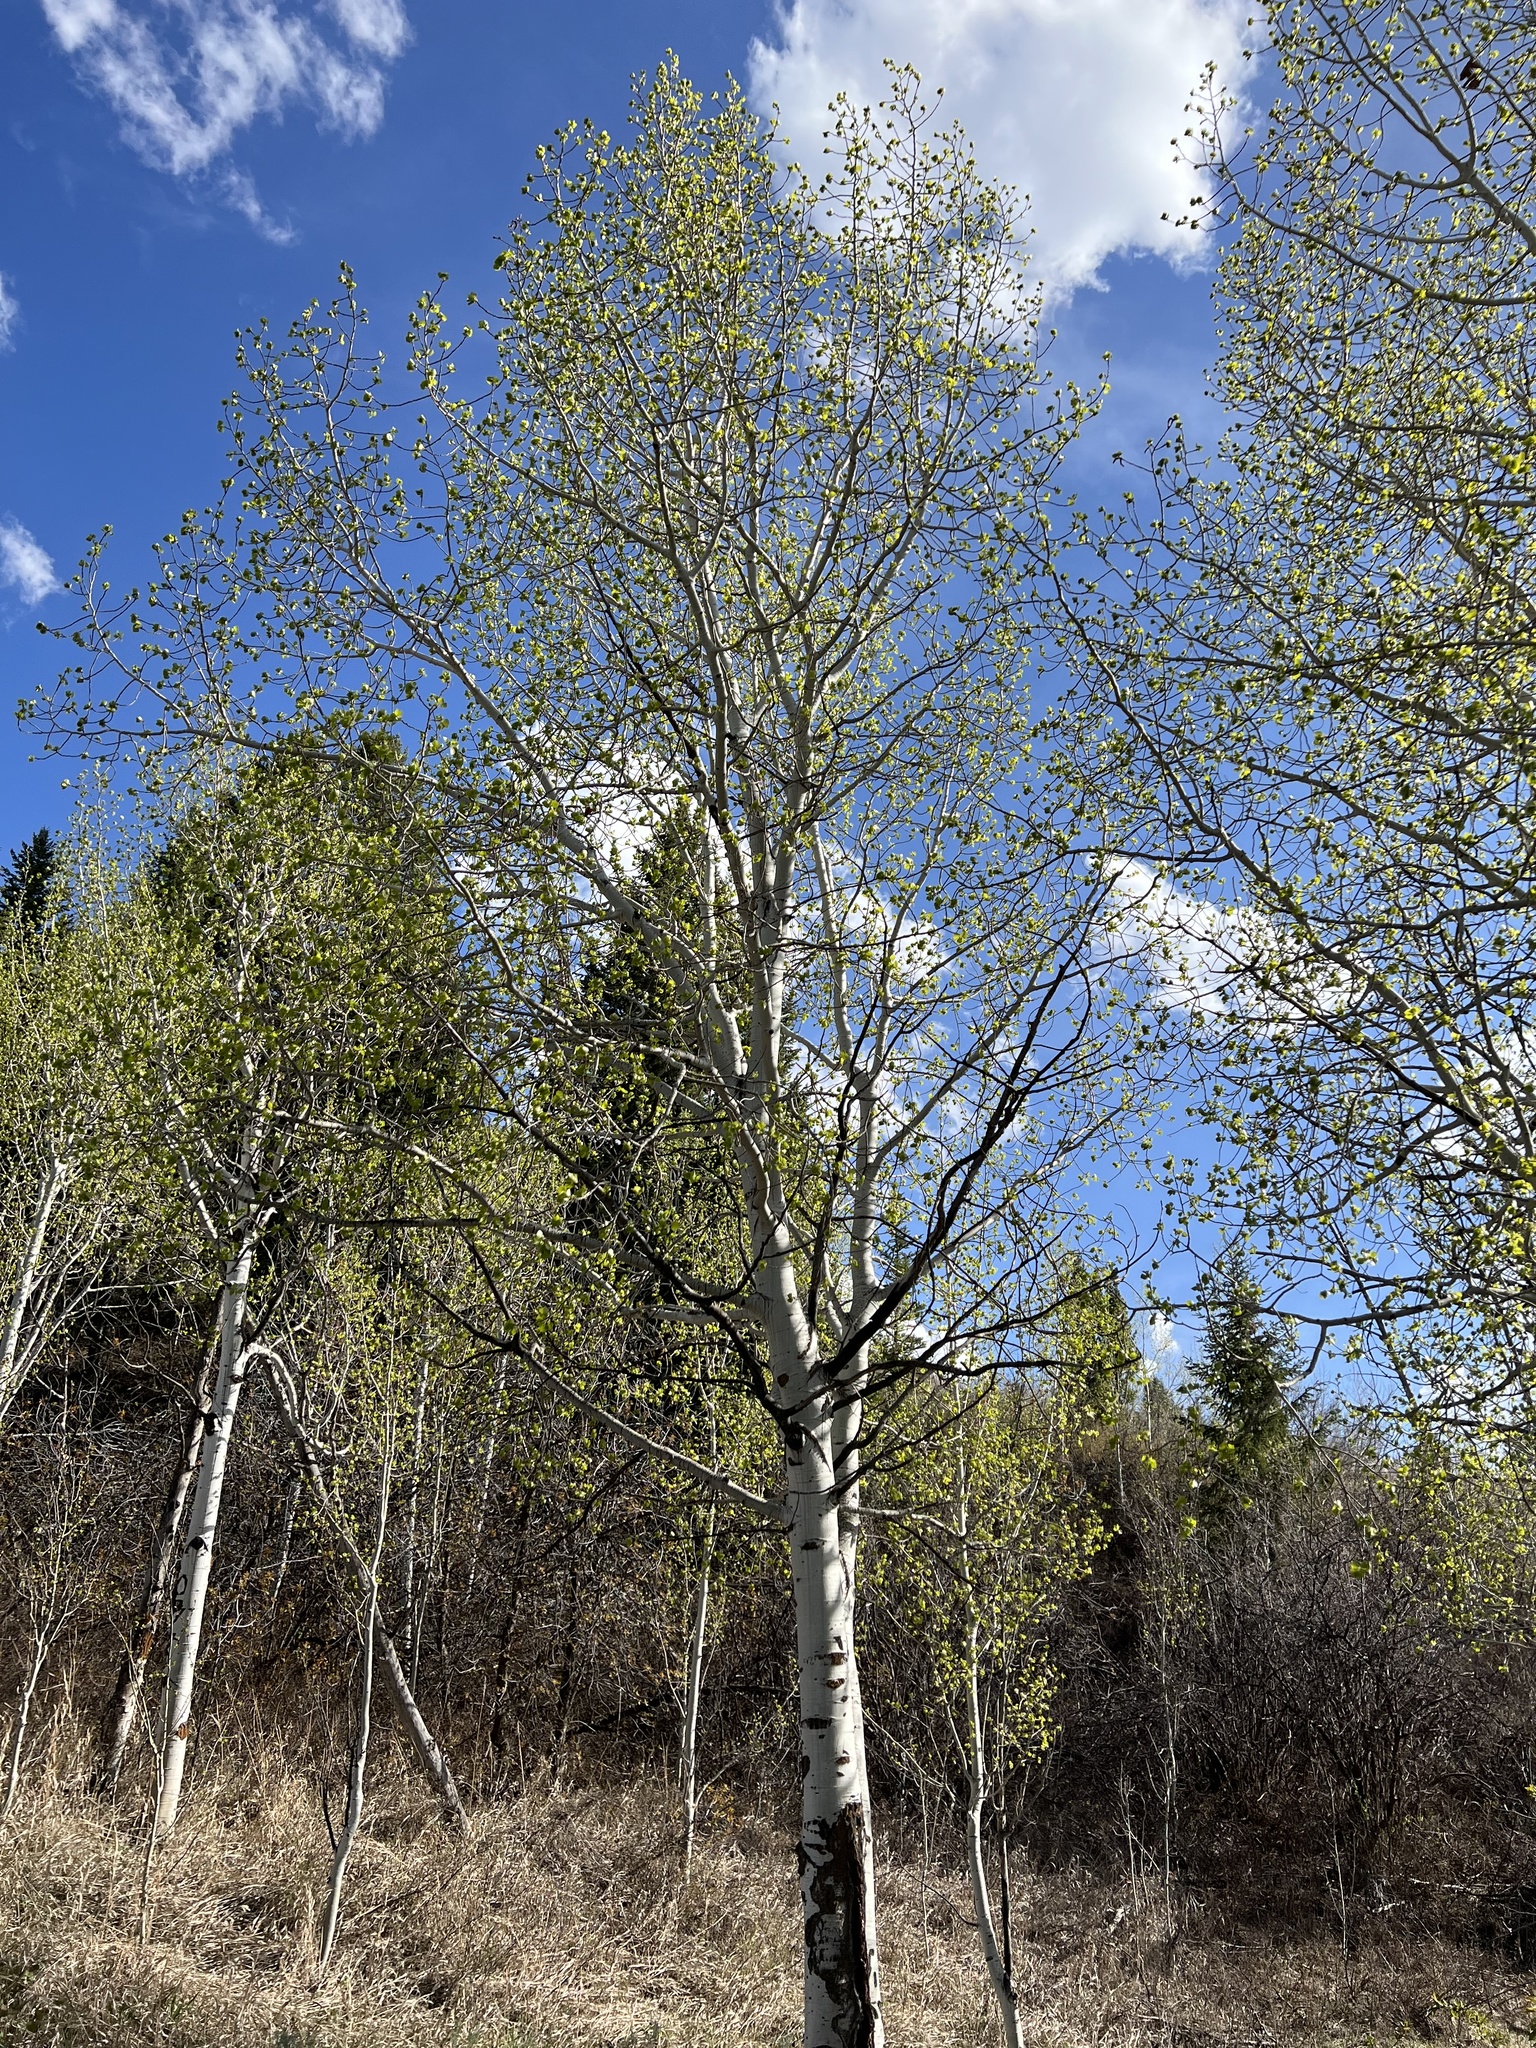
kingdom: Plantae
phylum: Tracheophyta
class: Magnoliopsida
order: Malpighiales
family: Salicaceae
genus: Populus
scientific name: Populus tremuloides
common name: Quaking aspen
